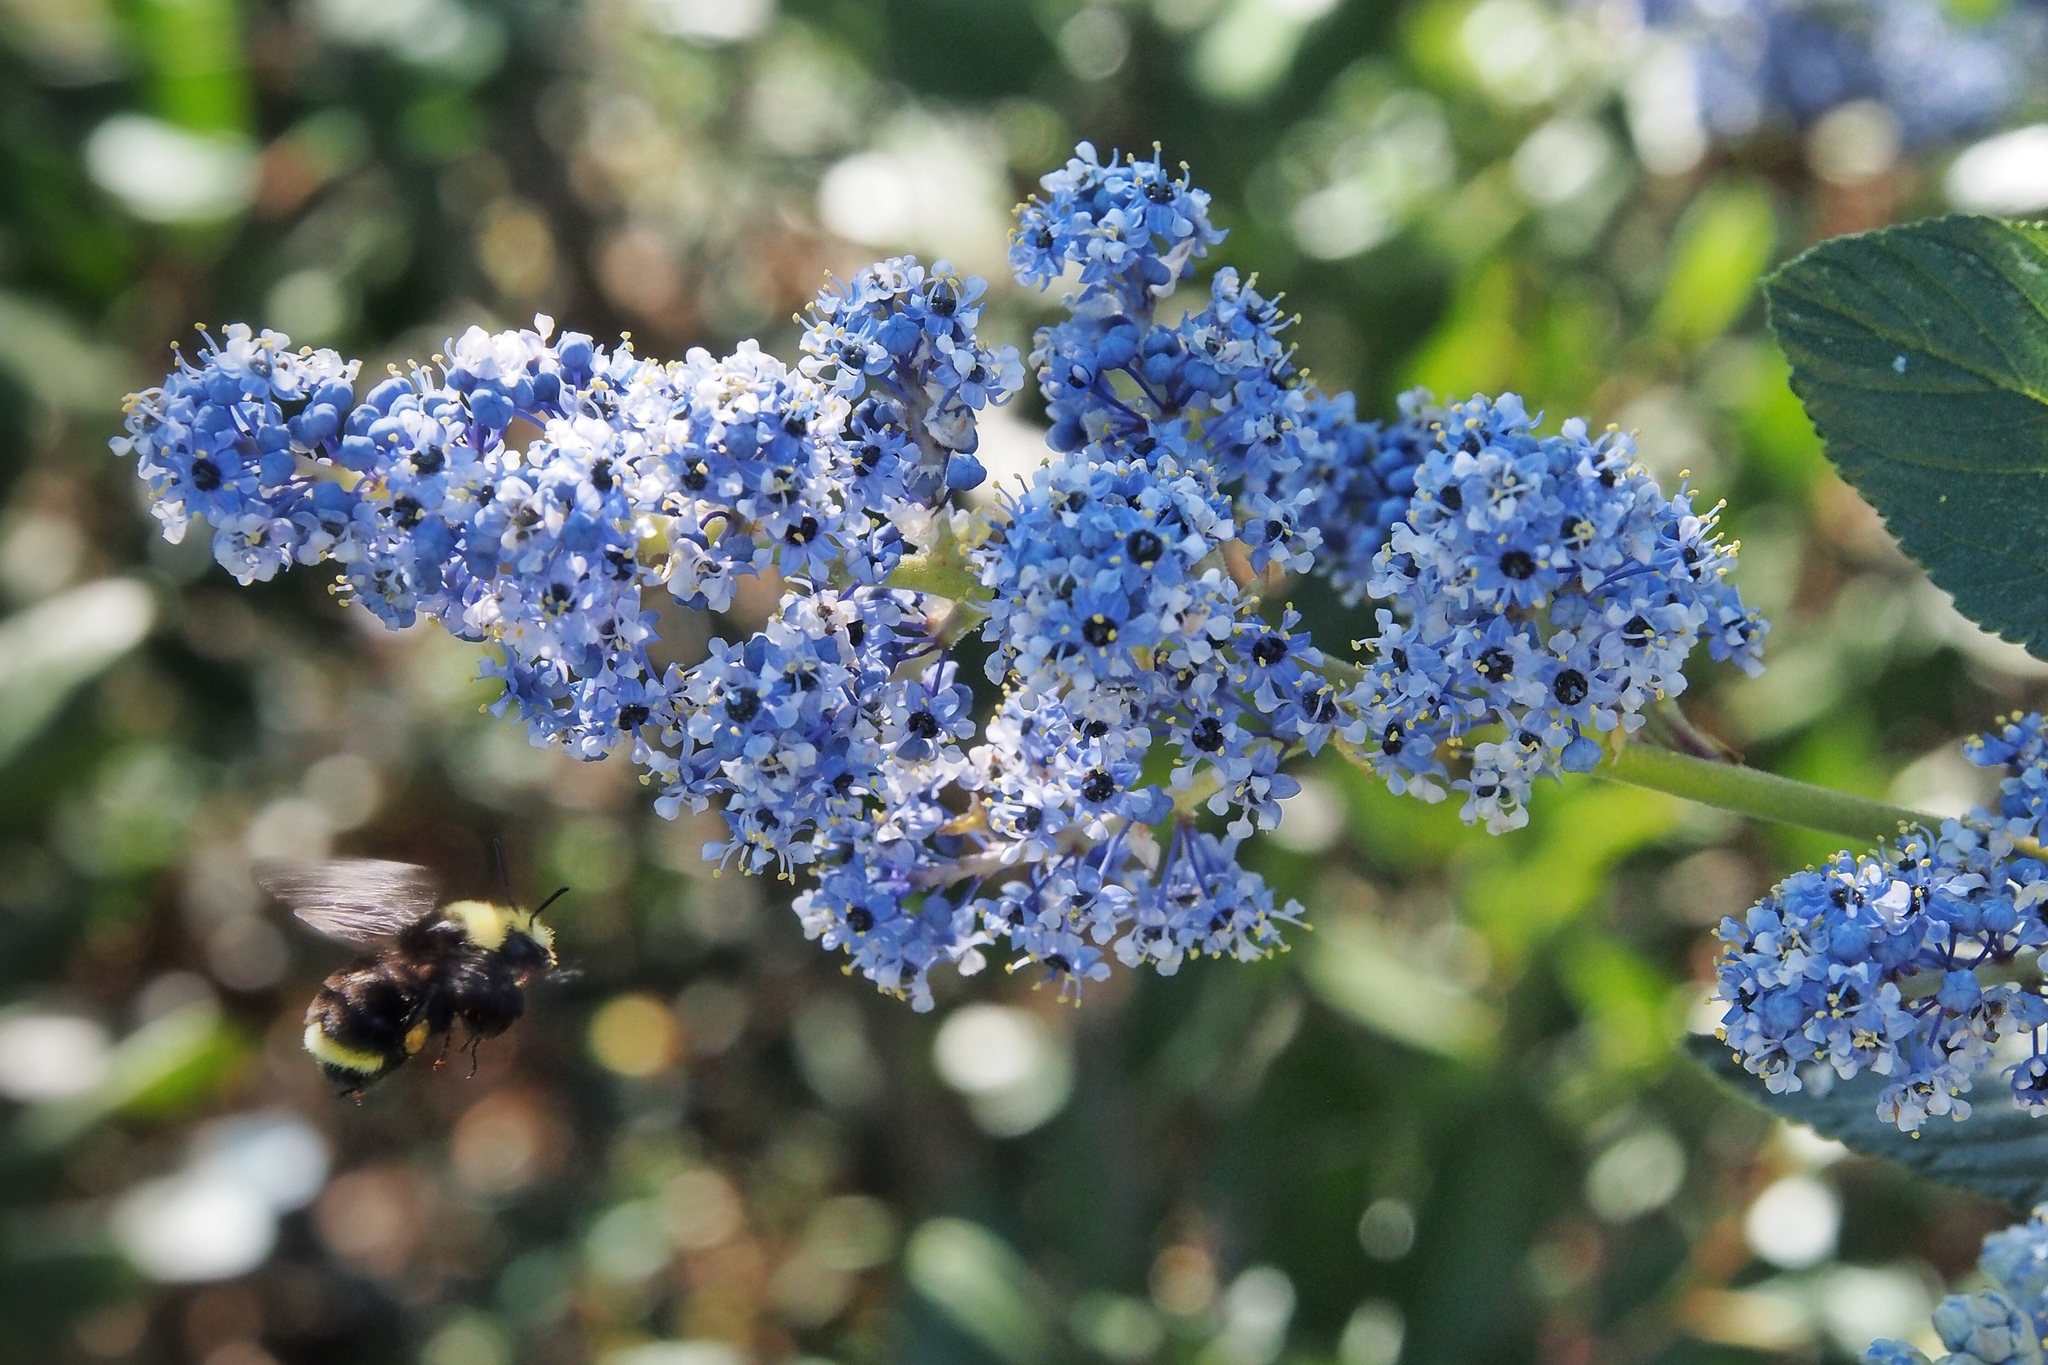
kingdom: Animalia
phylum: Arthropoda
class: Insecta
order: Hymenoptera
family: Apidae
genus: Bombus
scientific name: Bombus vosnesenskii
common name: Vosnesensky bumble bee
